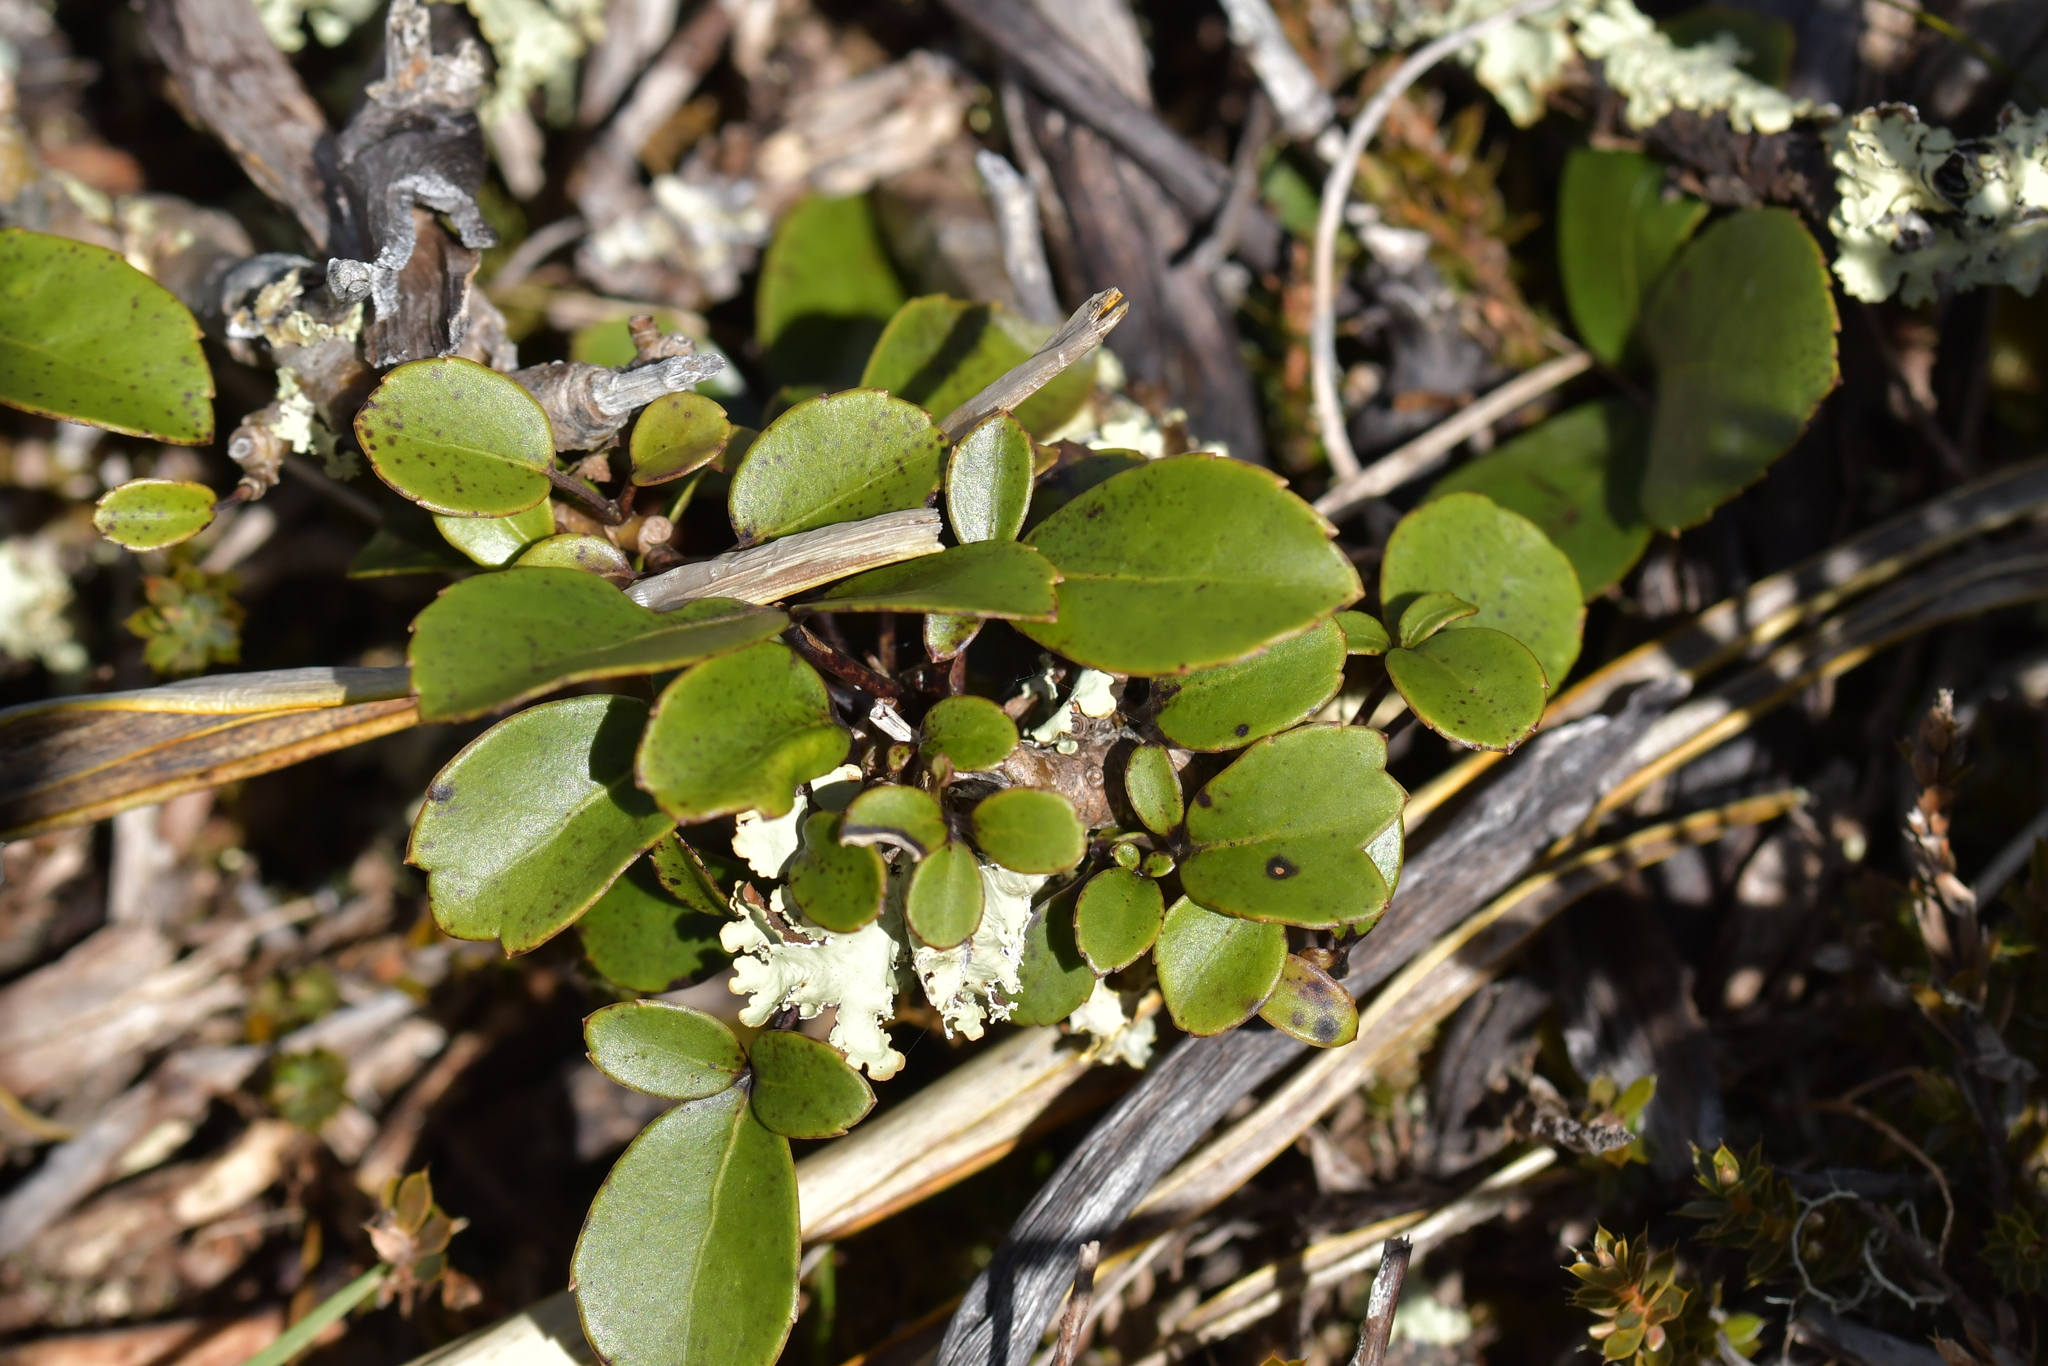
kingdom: Plantae
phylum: Tracheophyta
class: Magnoliopsida
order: Apiales
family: Araliaceae
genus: Neopanax
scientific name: Neopanax colensoi
